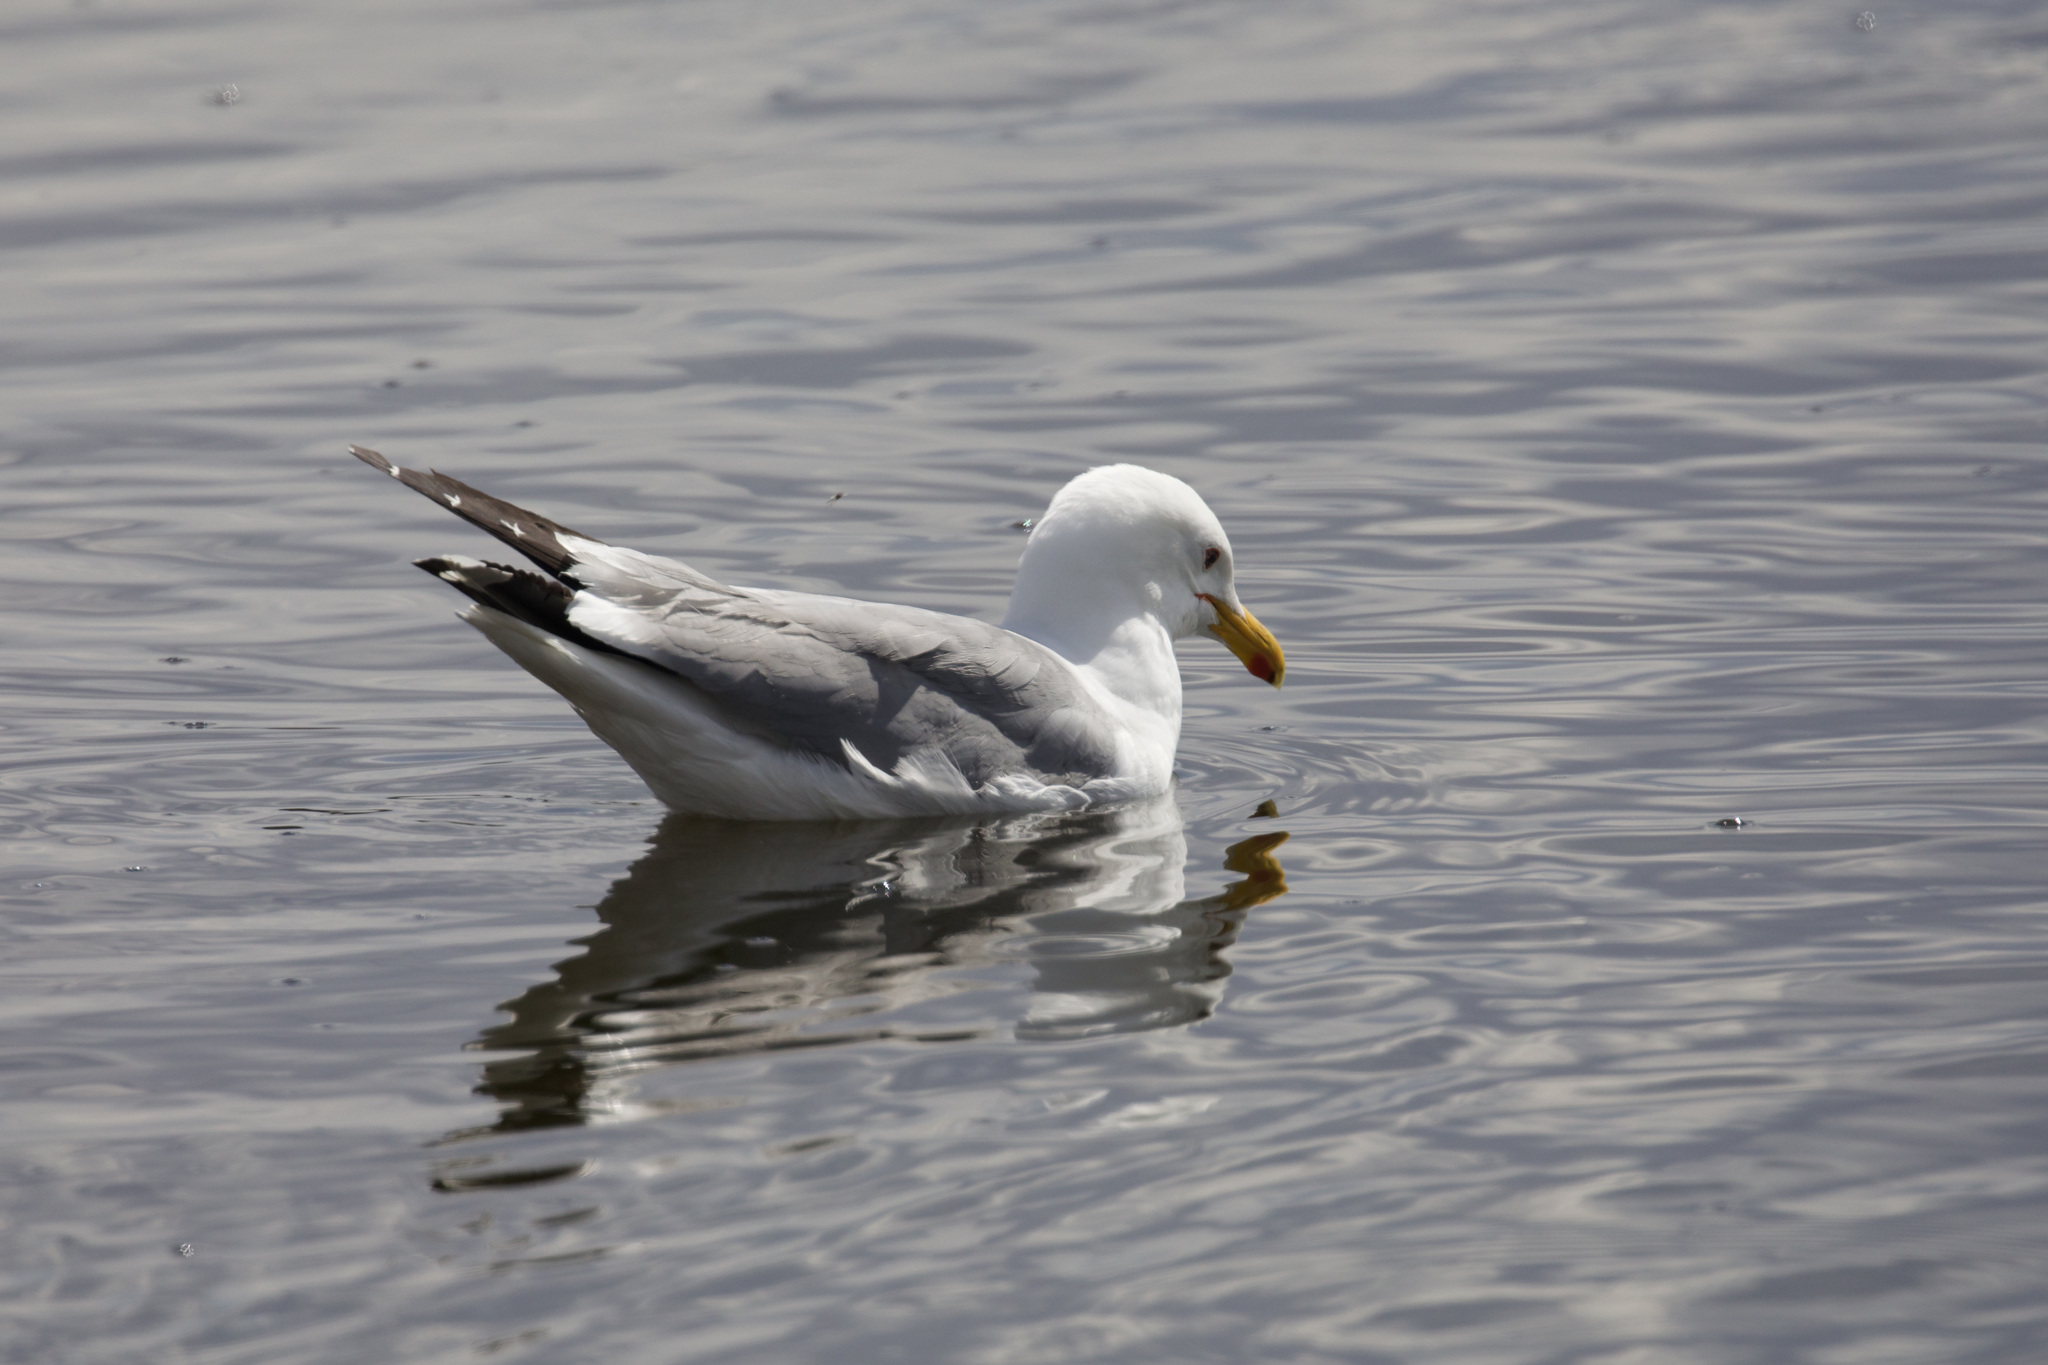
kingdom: Animalia
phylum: Chordata
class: Aves
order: Charadriiformes
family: Laridae
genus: Larus
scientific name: Larus californicus
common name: California gull
